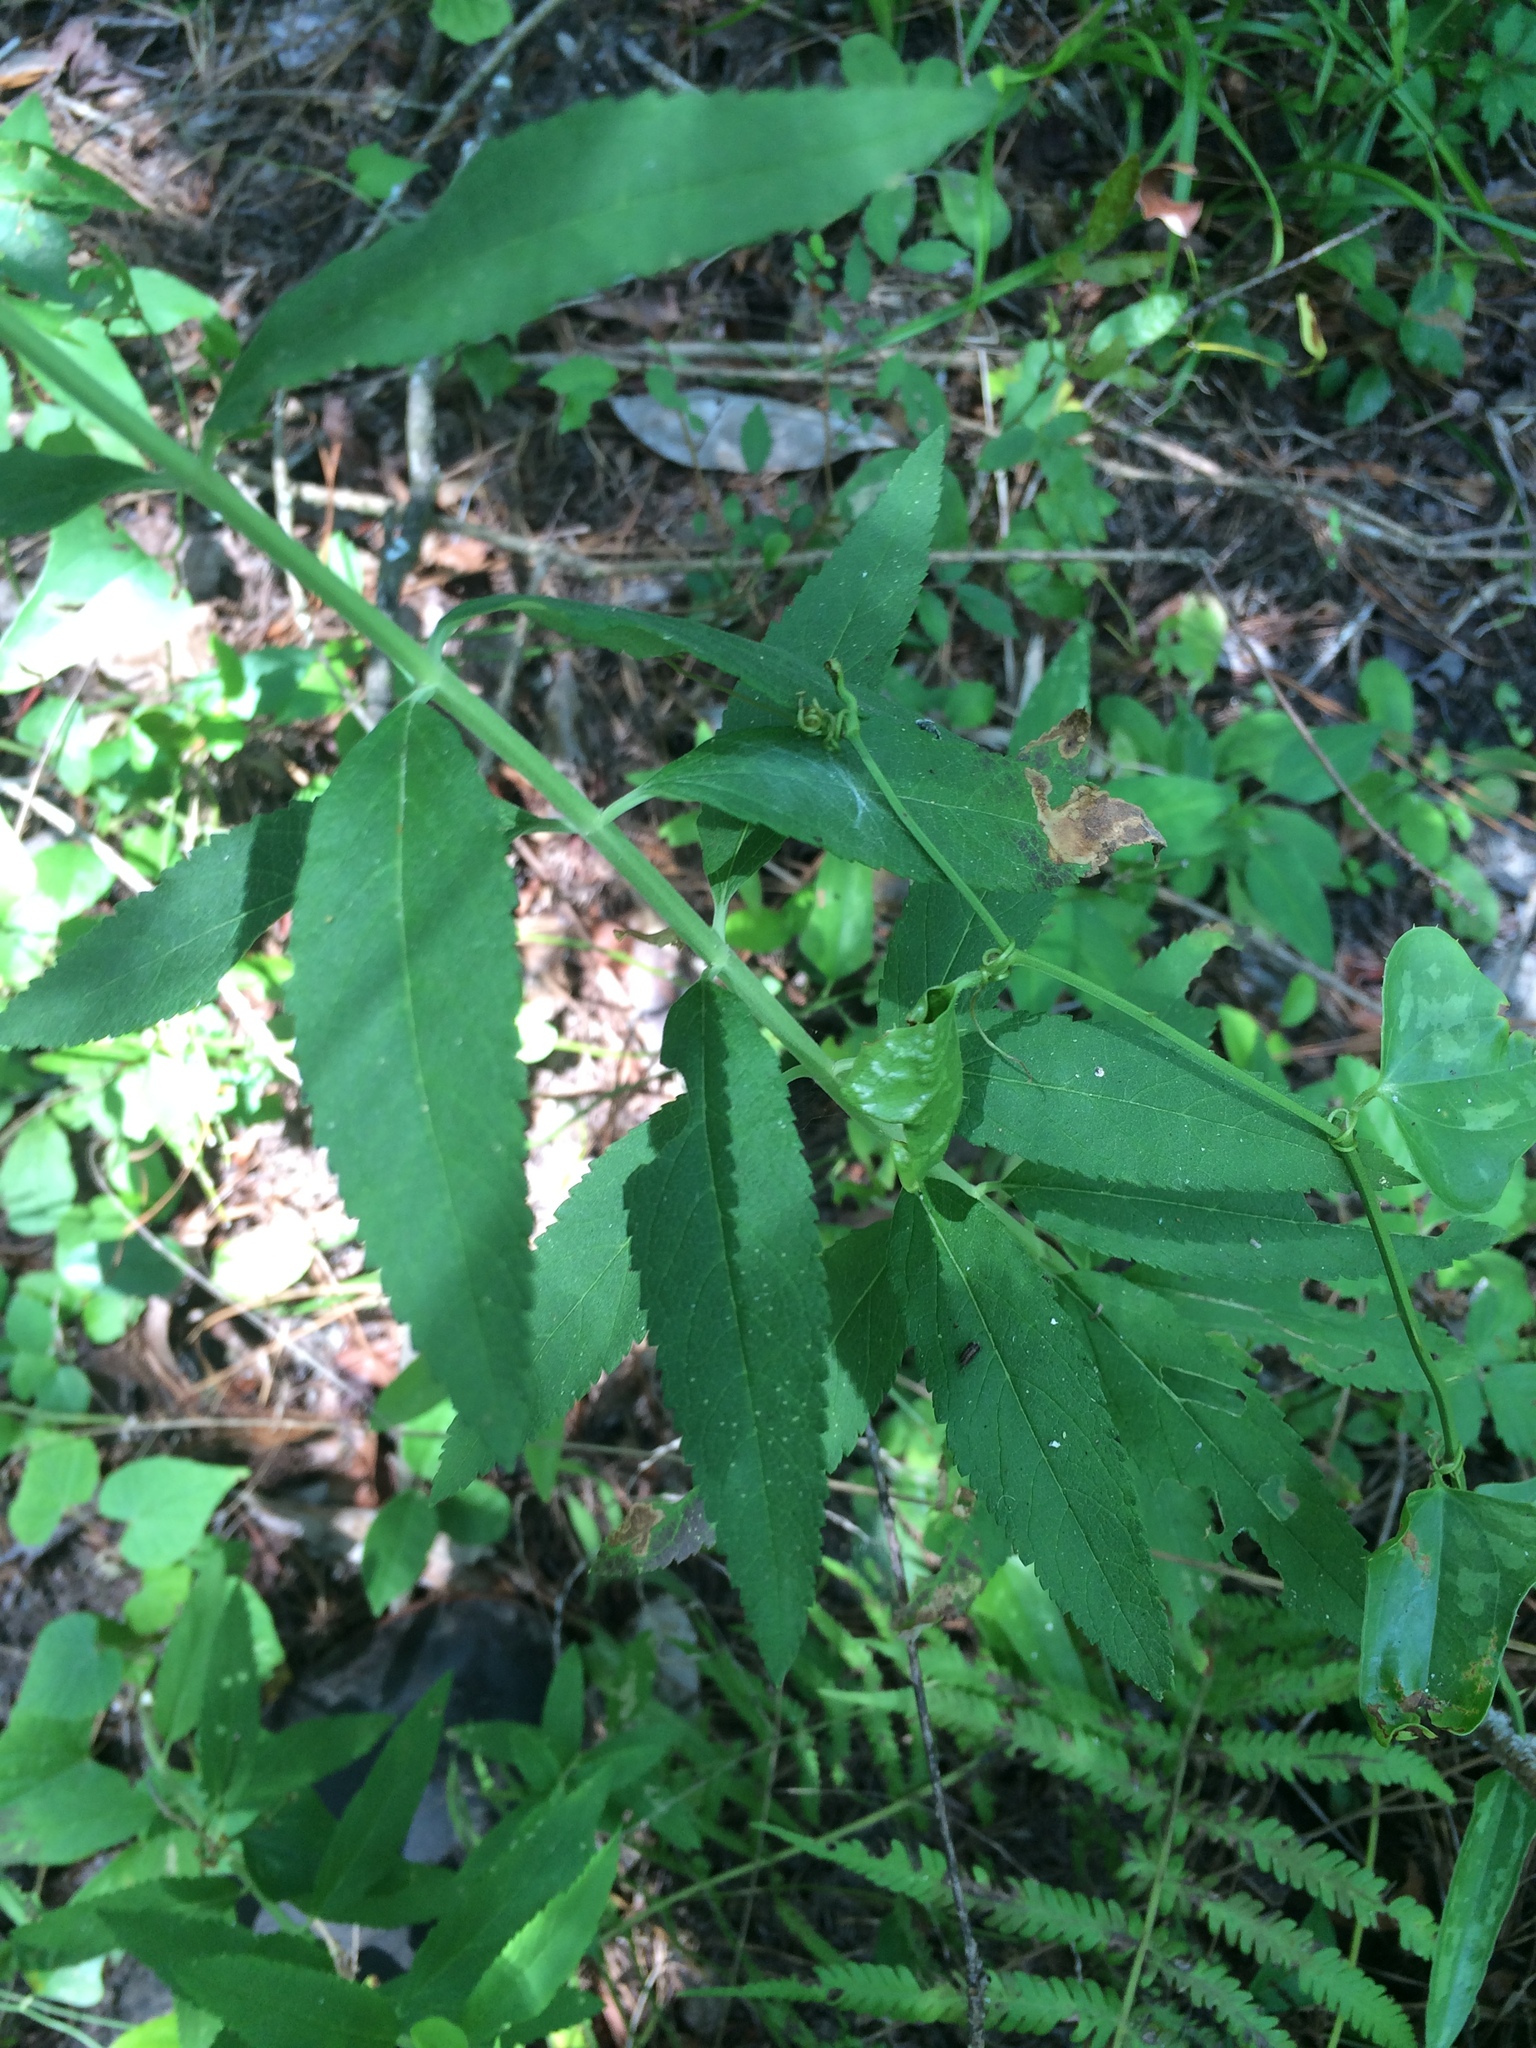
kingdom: Plantae
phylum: Tracheophyta
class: Magnoliopsida
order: Lamiales
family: Lamiaceae
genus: Teucrium
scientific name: Teucrium canadense
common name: American germander
